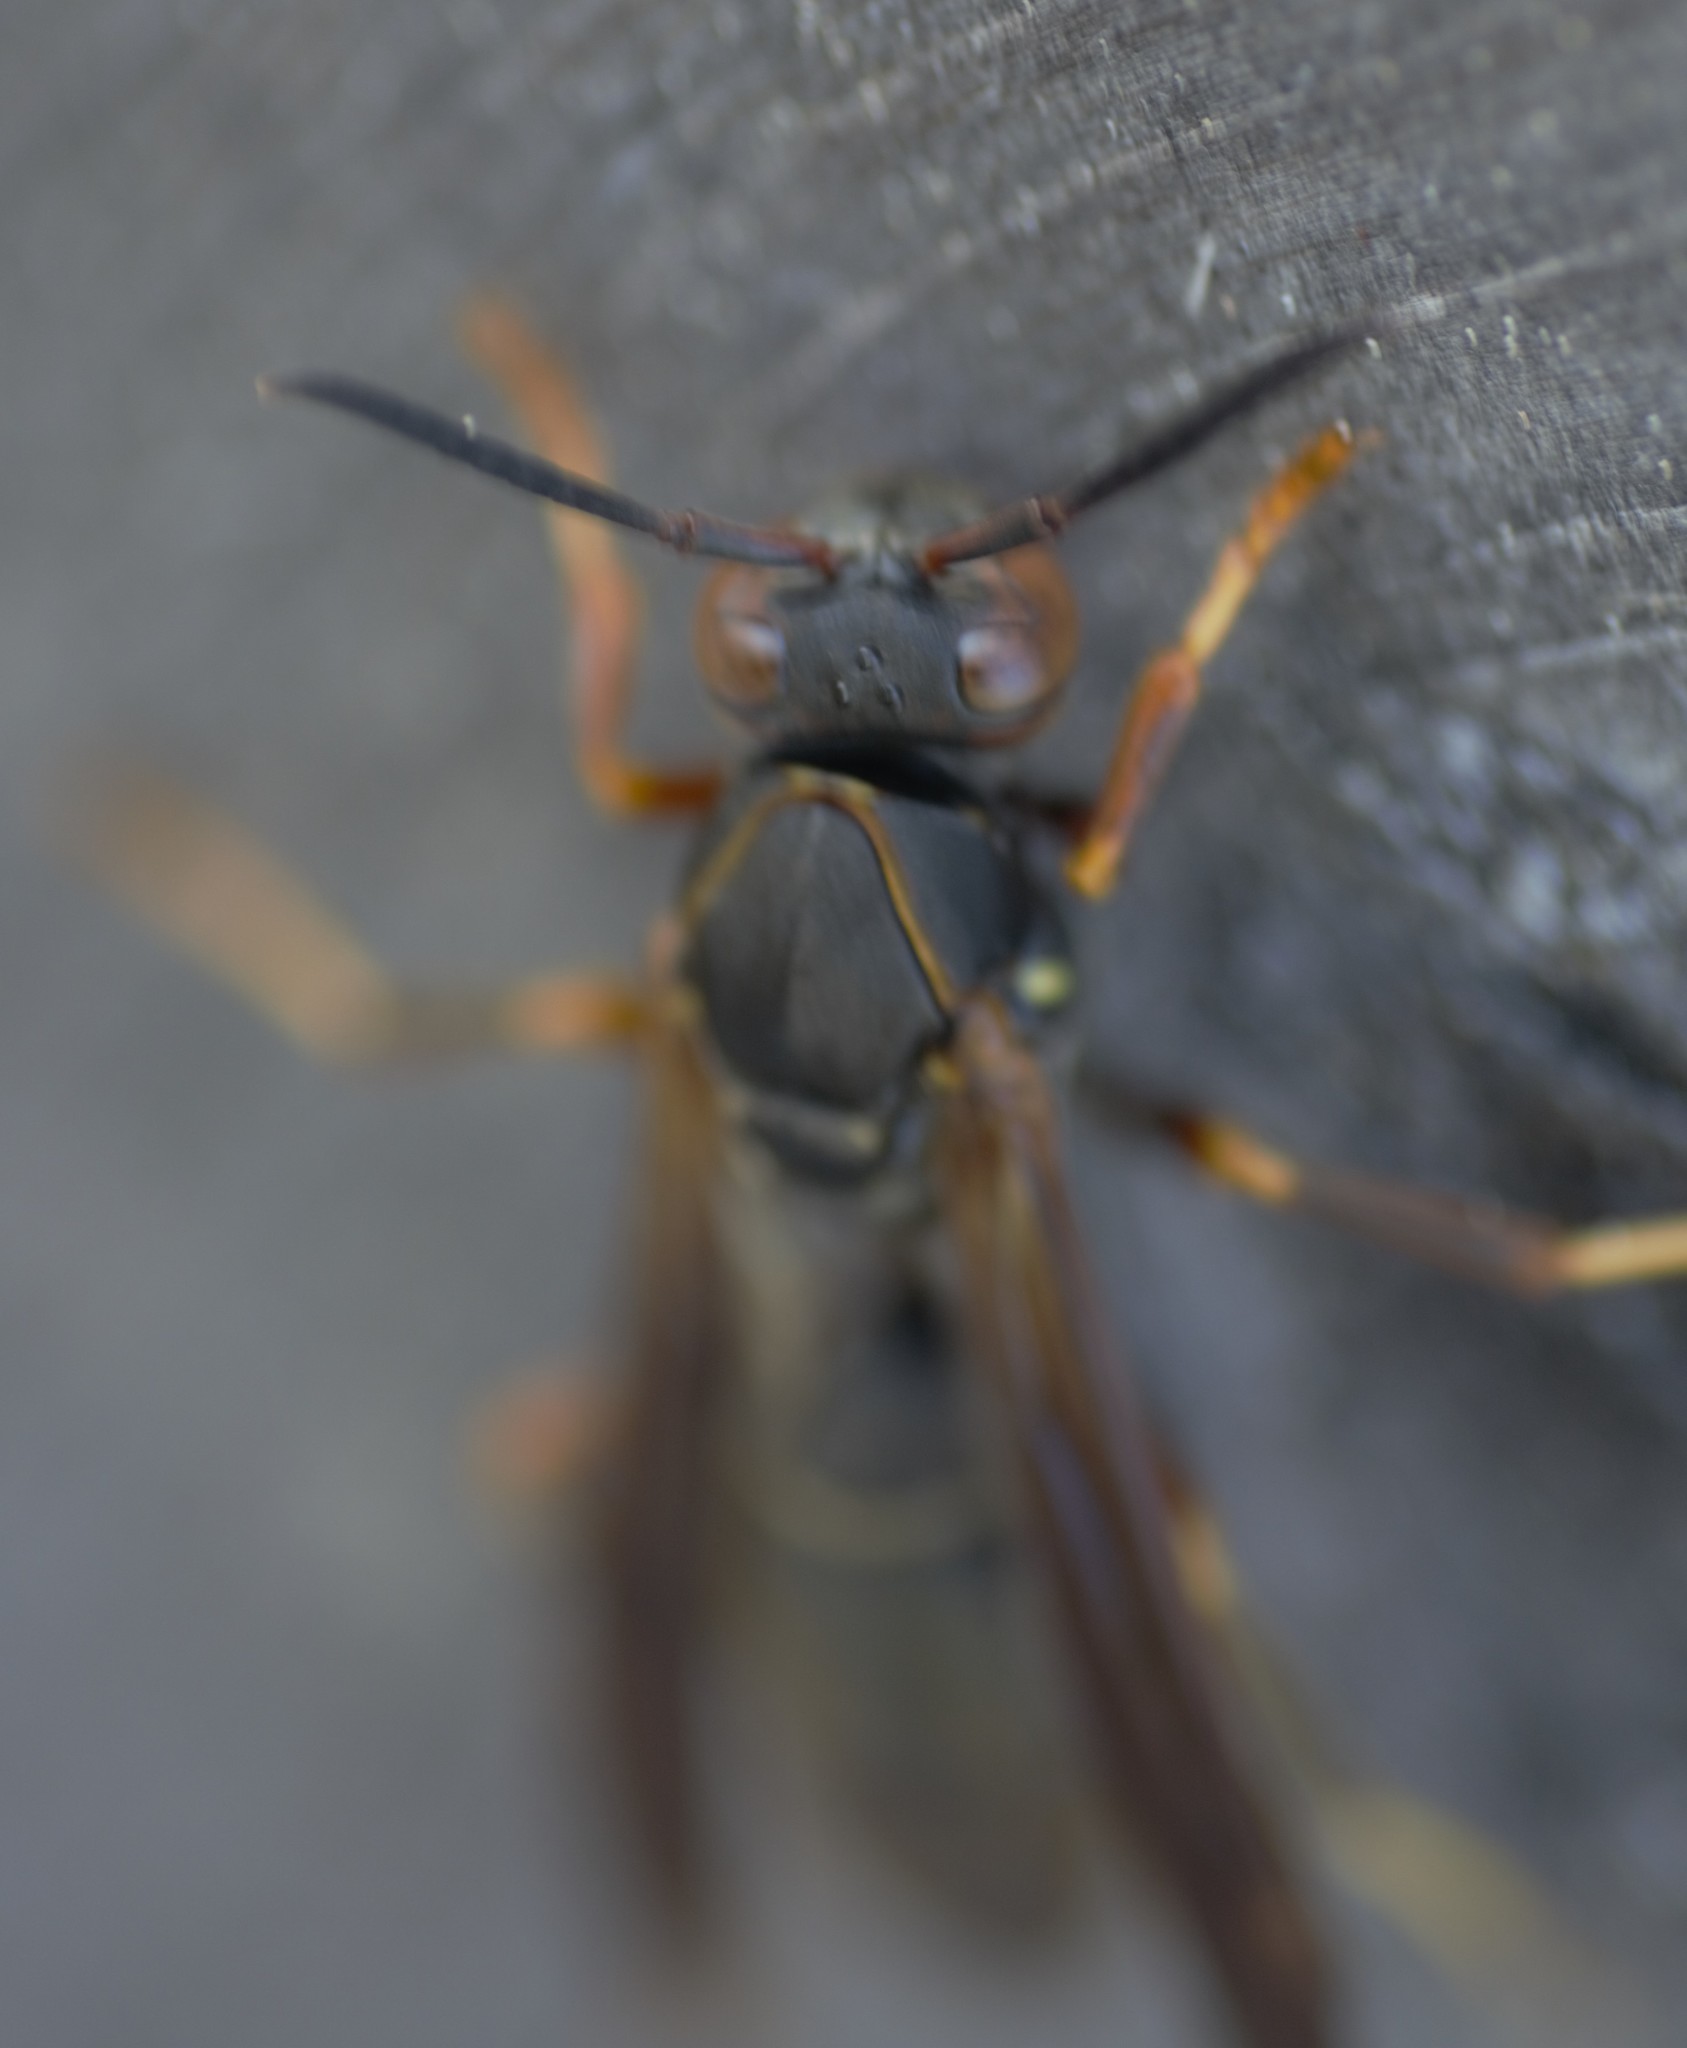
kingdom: Animalia
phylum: Arthropoda
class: Insecta
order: Hymenoptera
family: Eumenidae
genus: Polistes
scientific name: Polistes fuscatus
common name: Dark paper wasp
